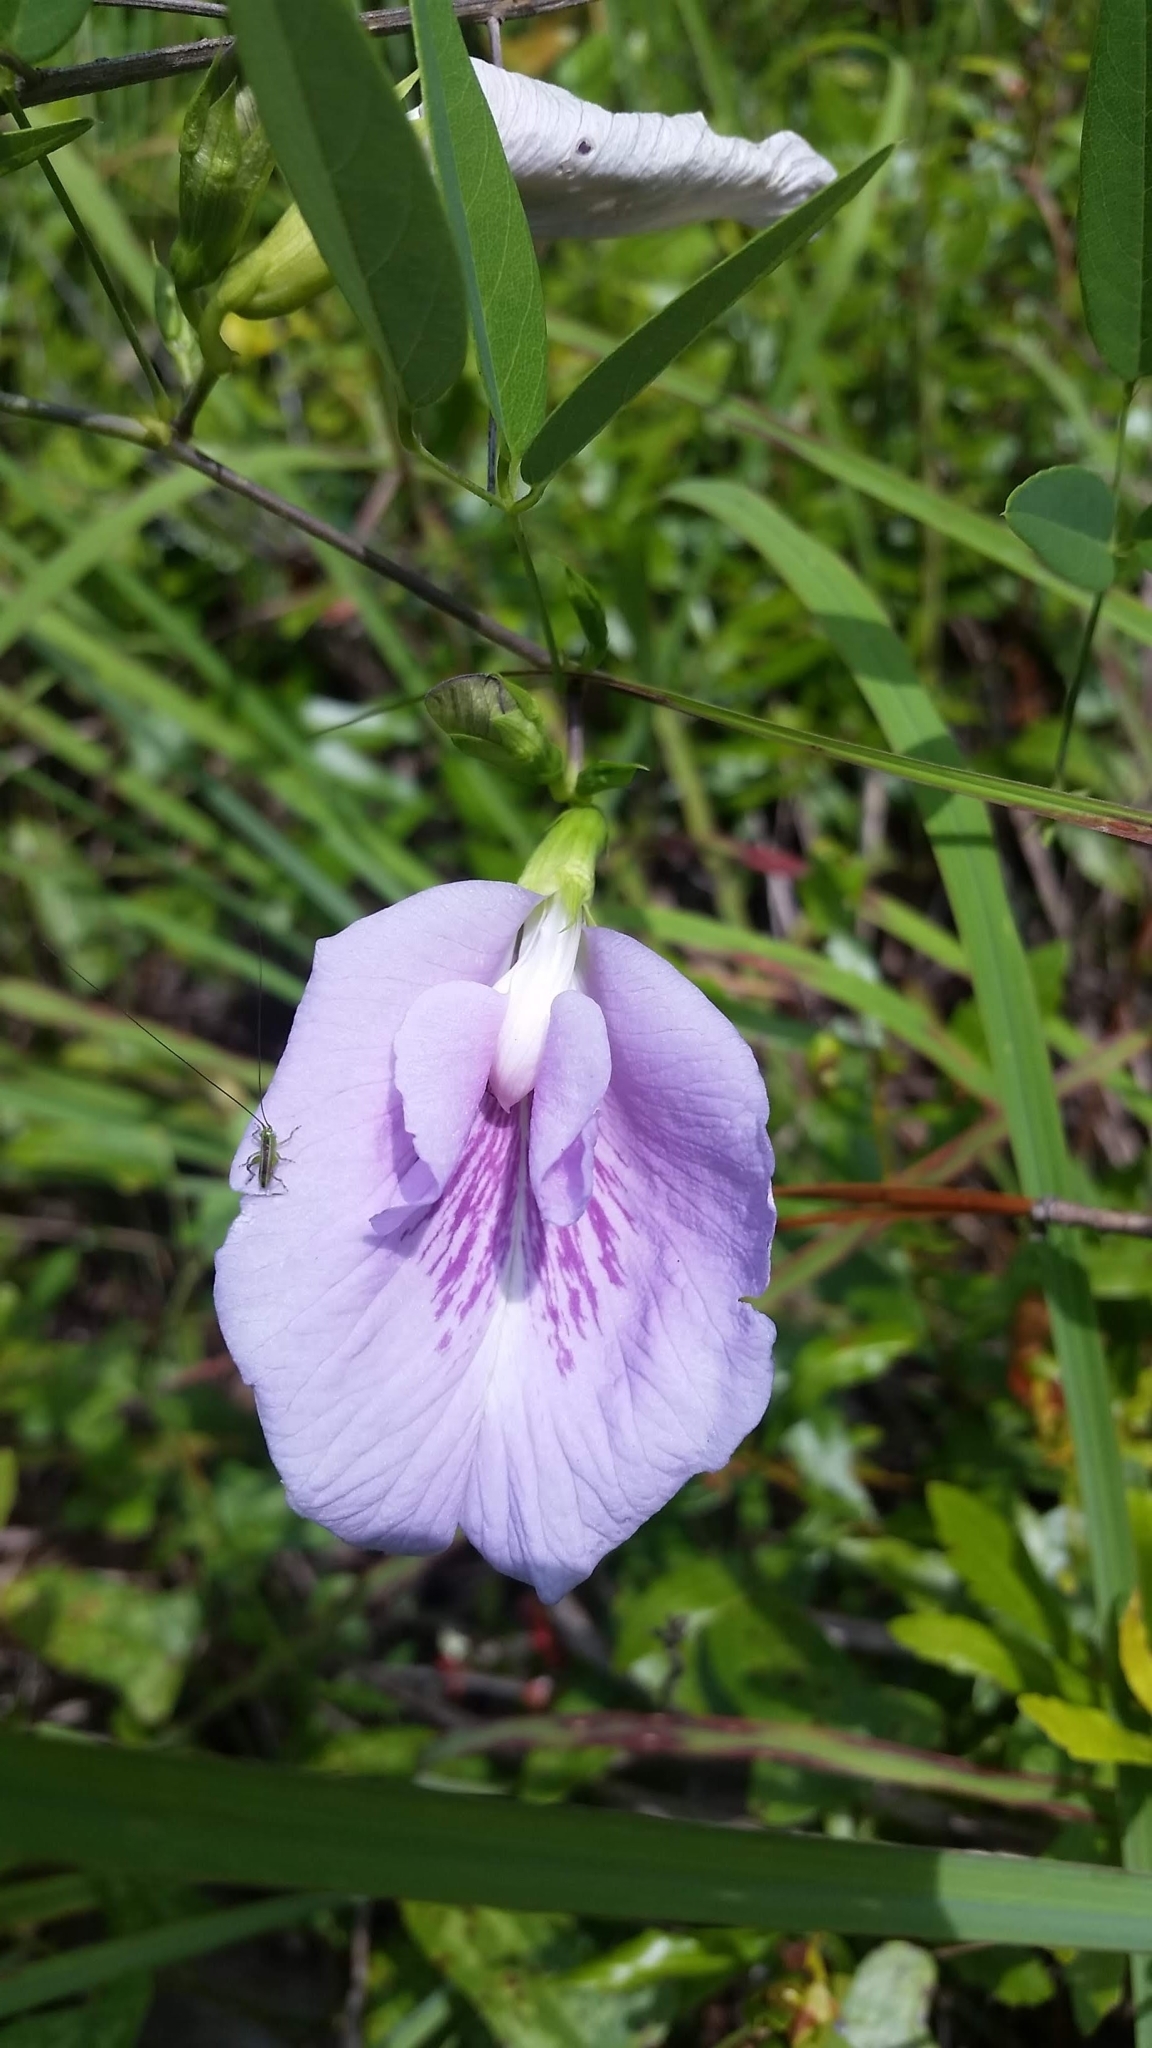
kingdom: Plantae
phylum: Tracheophyta
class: Magnoliopsida
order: Fabales
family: Fabaceae
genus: Clitoria
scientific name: Clitoria mariana
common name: Butterfly-pea
